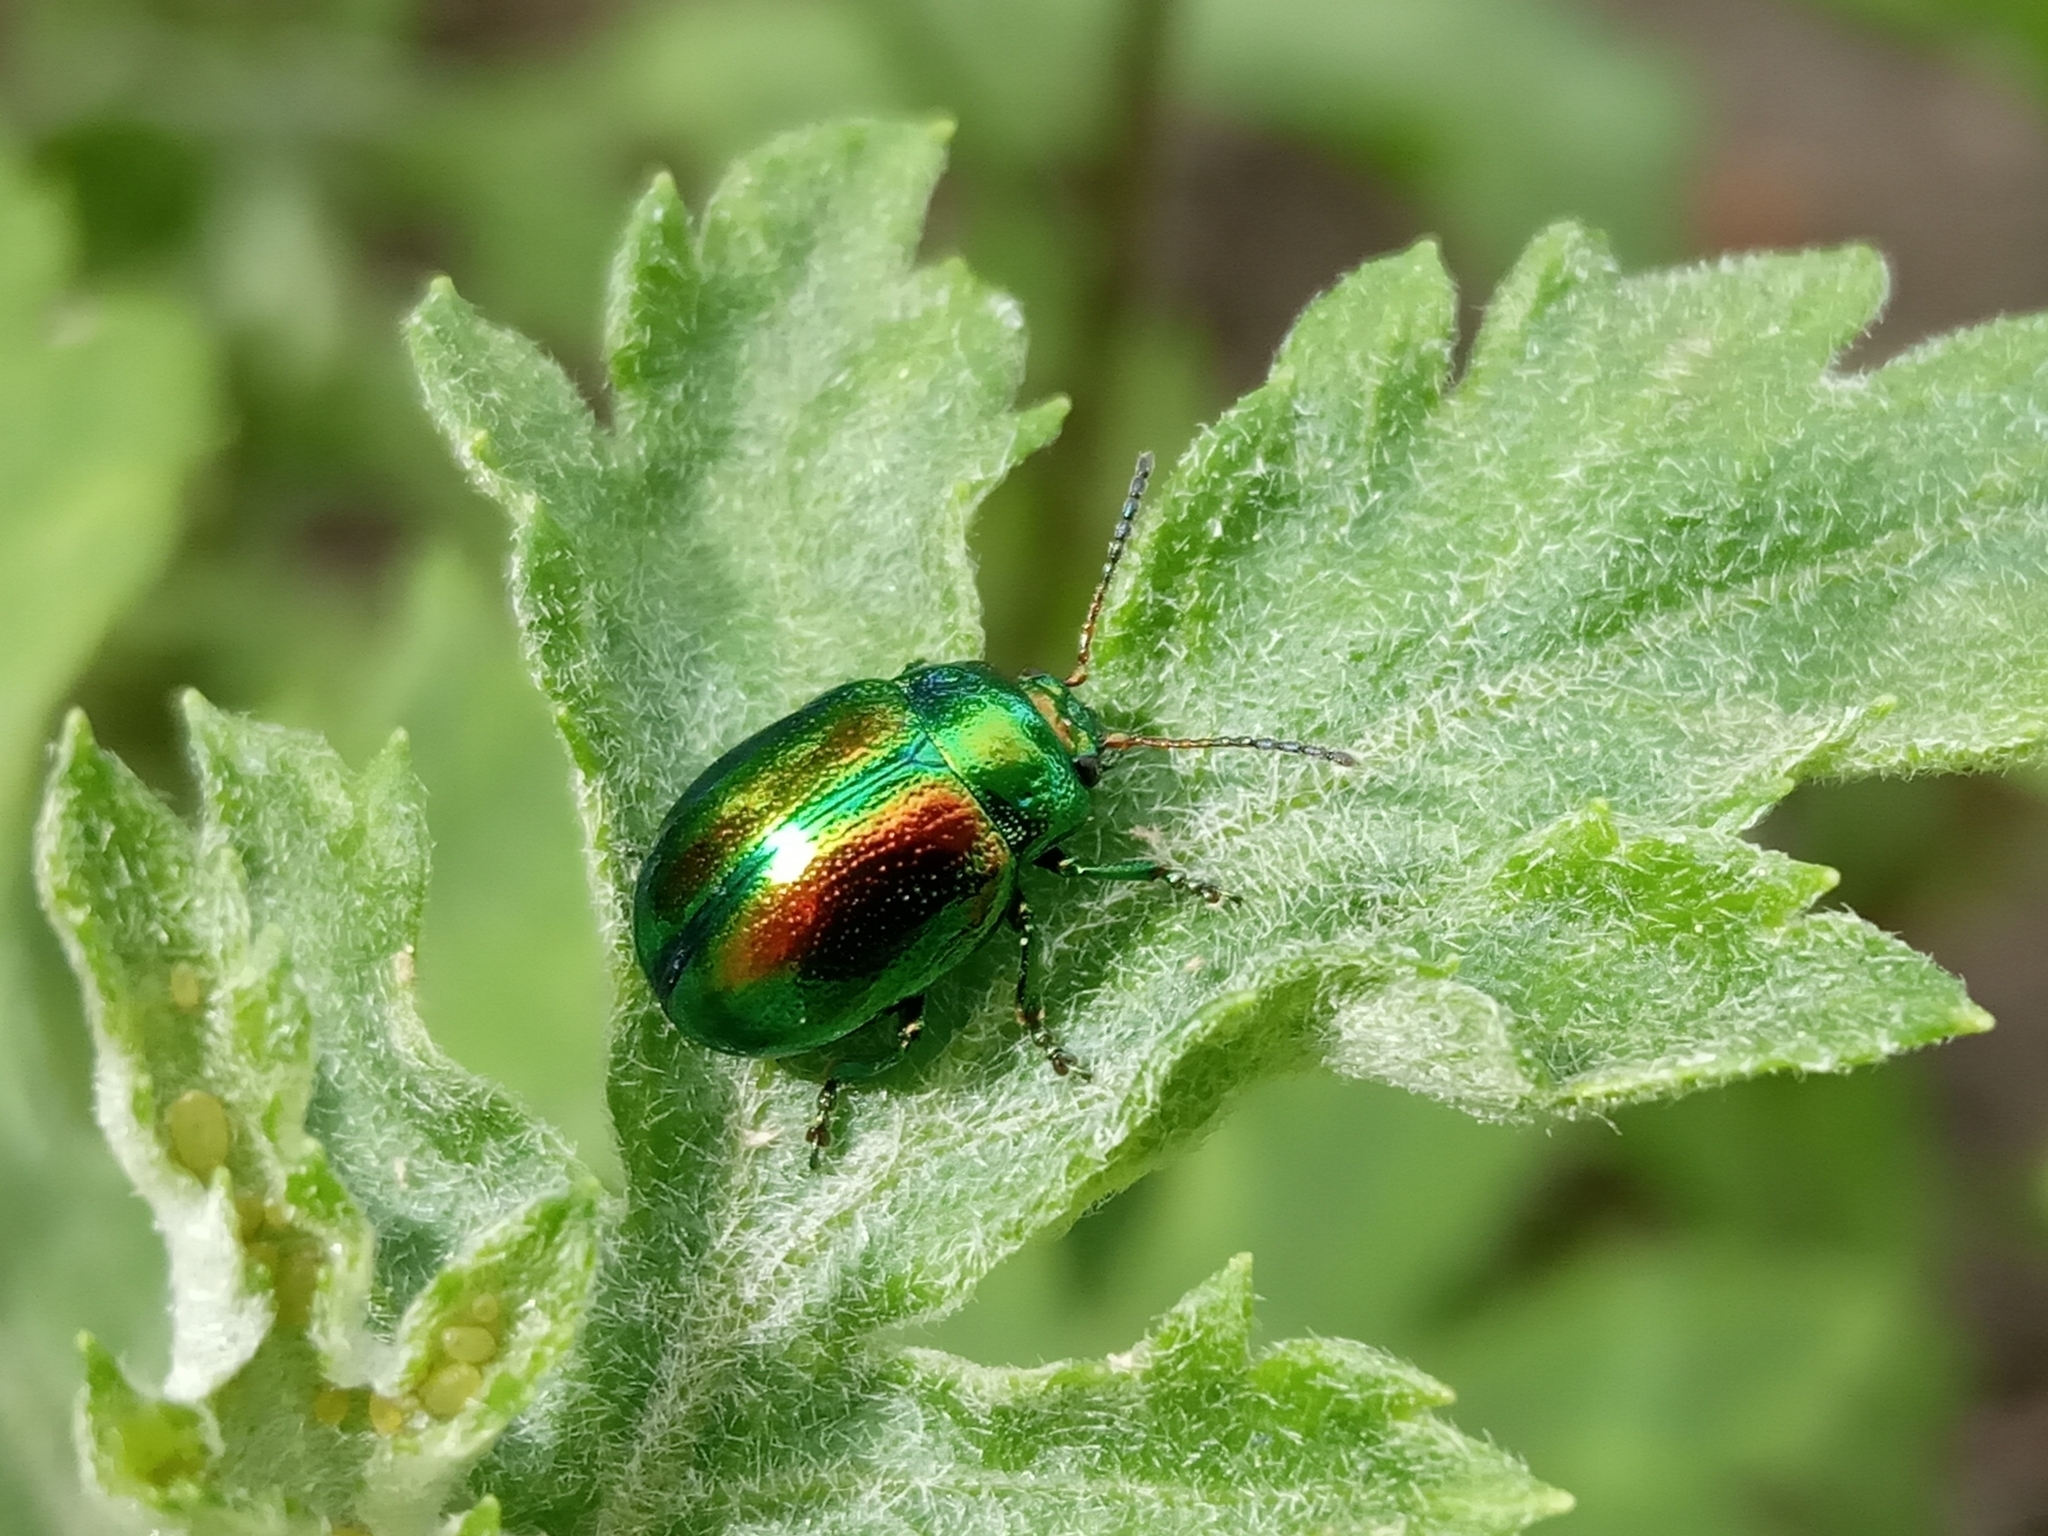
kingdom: Animalia
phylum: Arthropoda
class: Insecta
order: Coleoptera
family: Chrysomelidae
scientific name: Chrysomelidae
